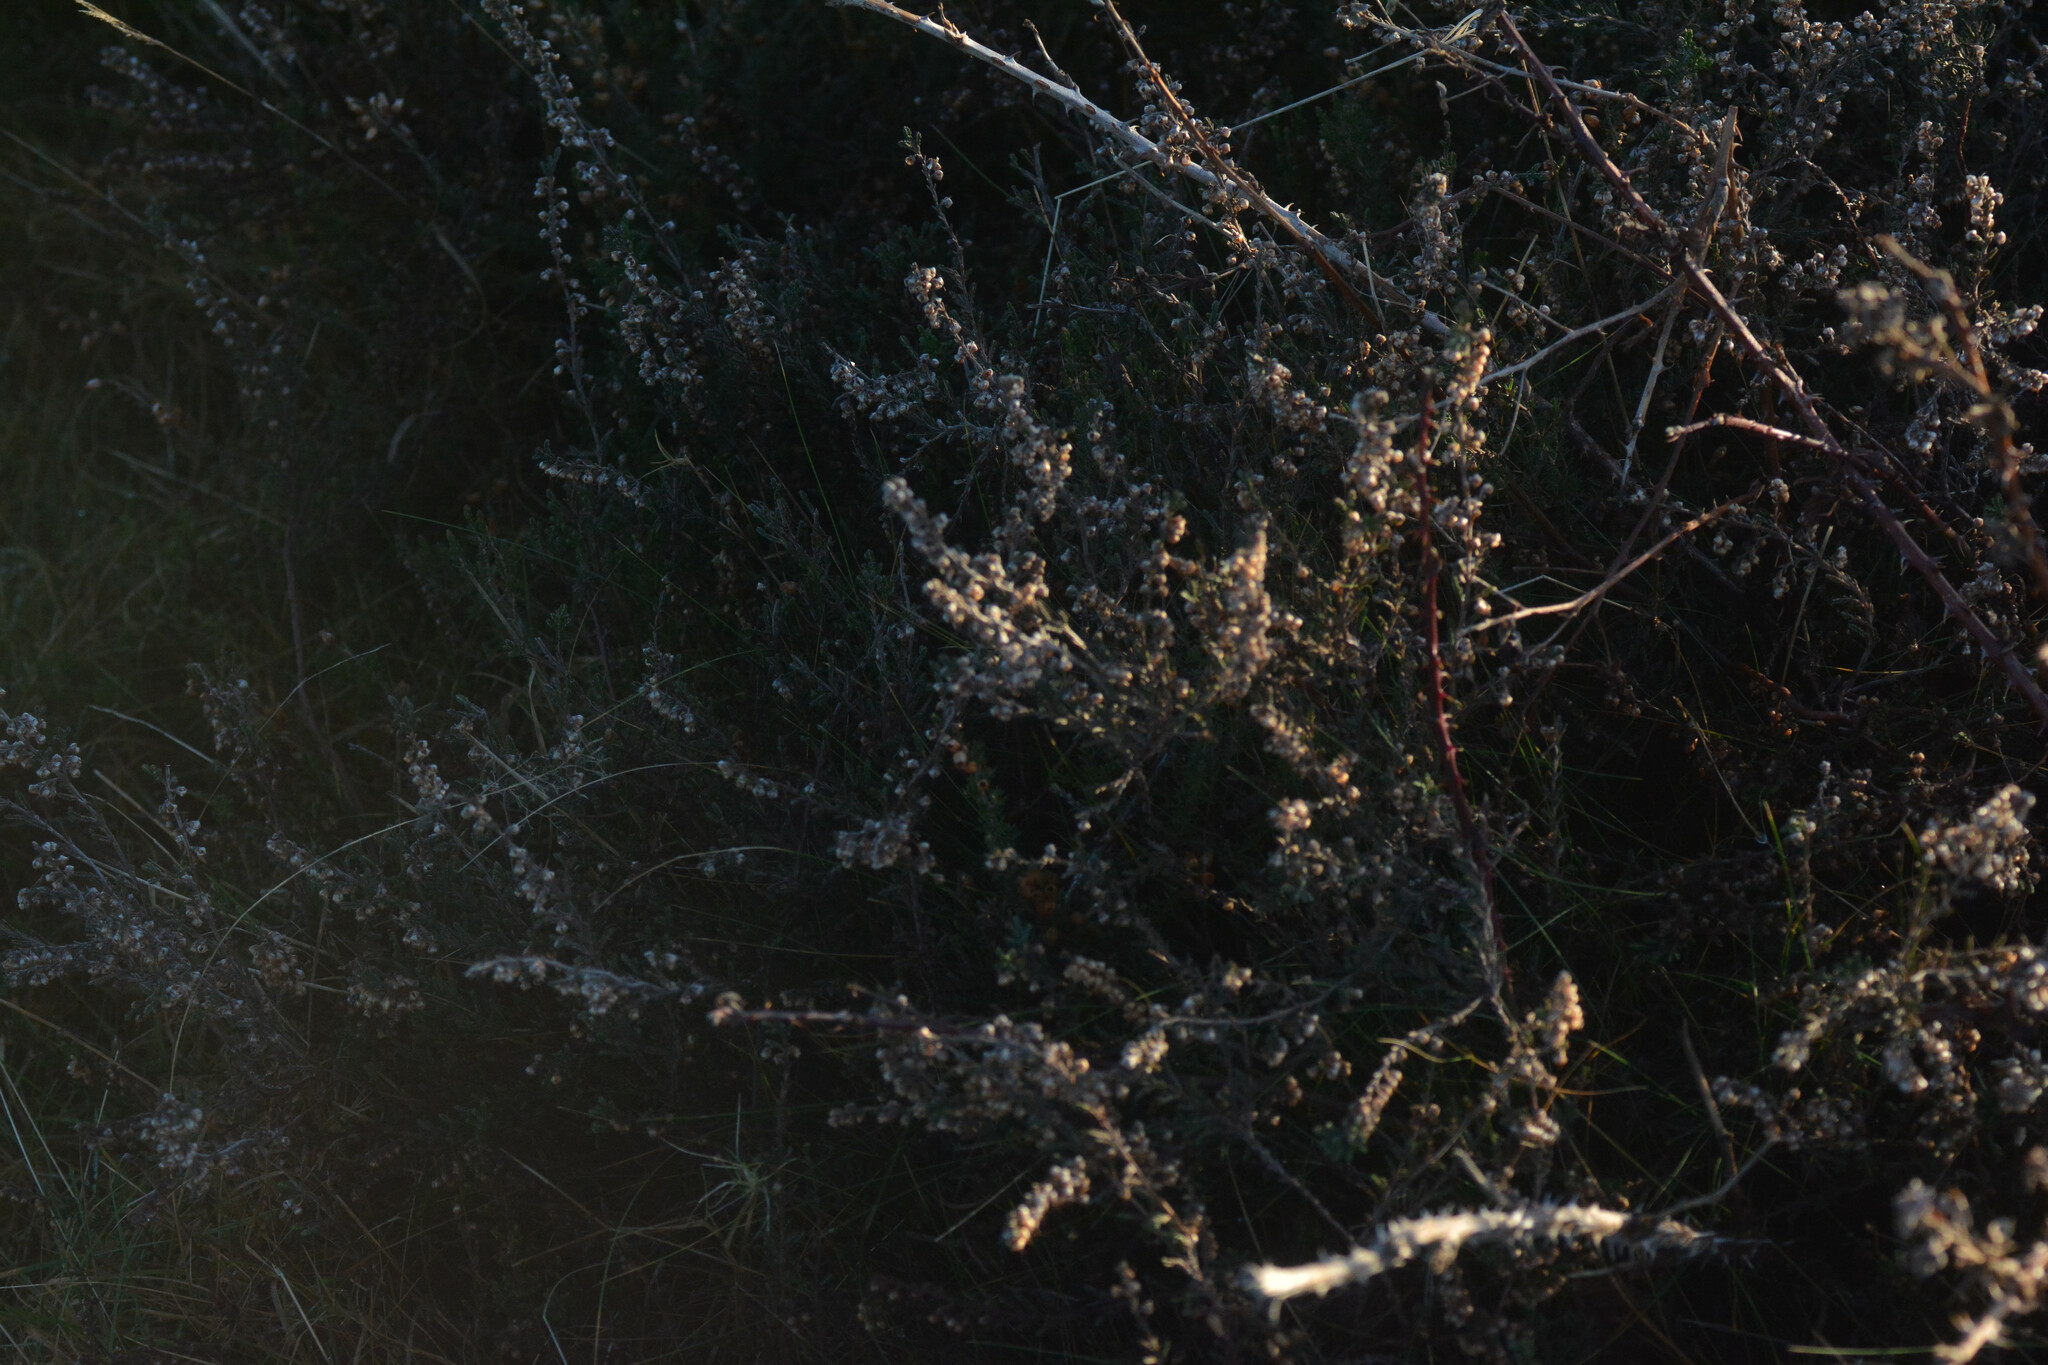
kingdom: Plantae
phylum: Tracheophyta
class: Magnoliopsida
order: Ericales
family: Ericaceae
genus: Calluna
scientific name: Calluna vulgaris
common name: Heather
